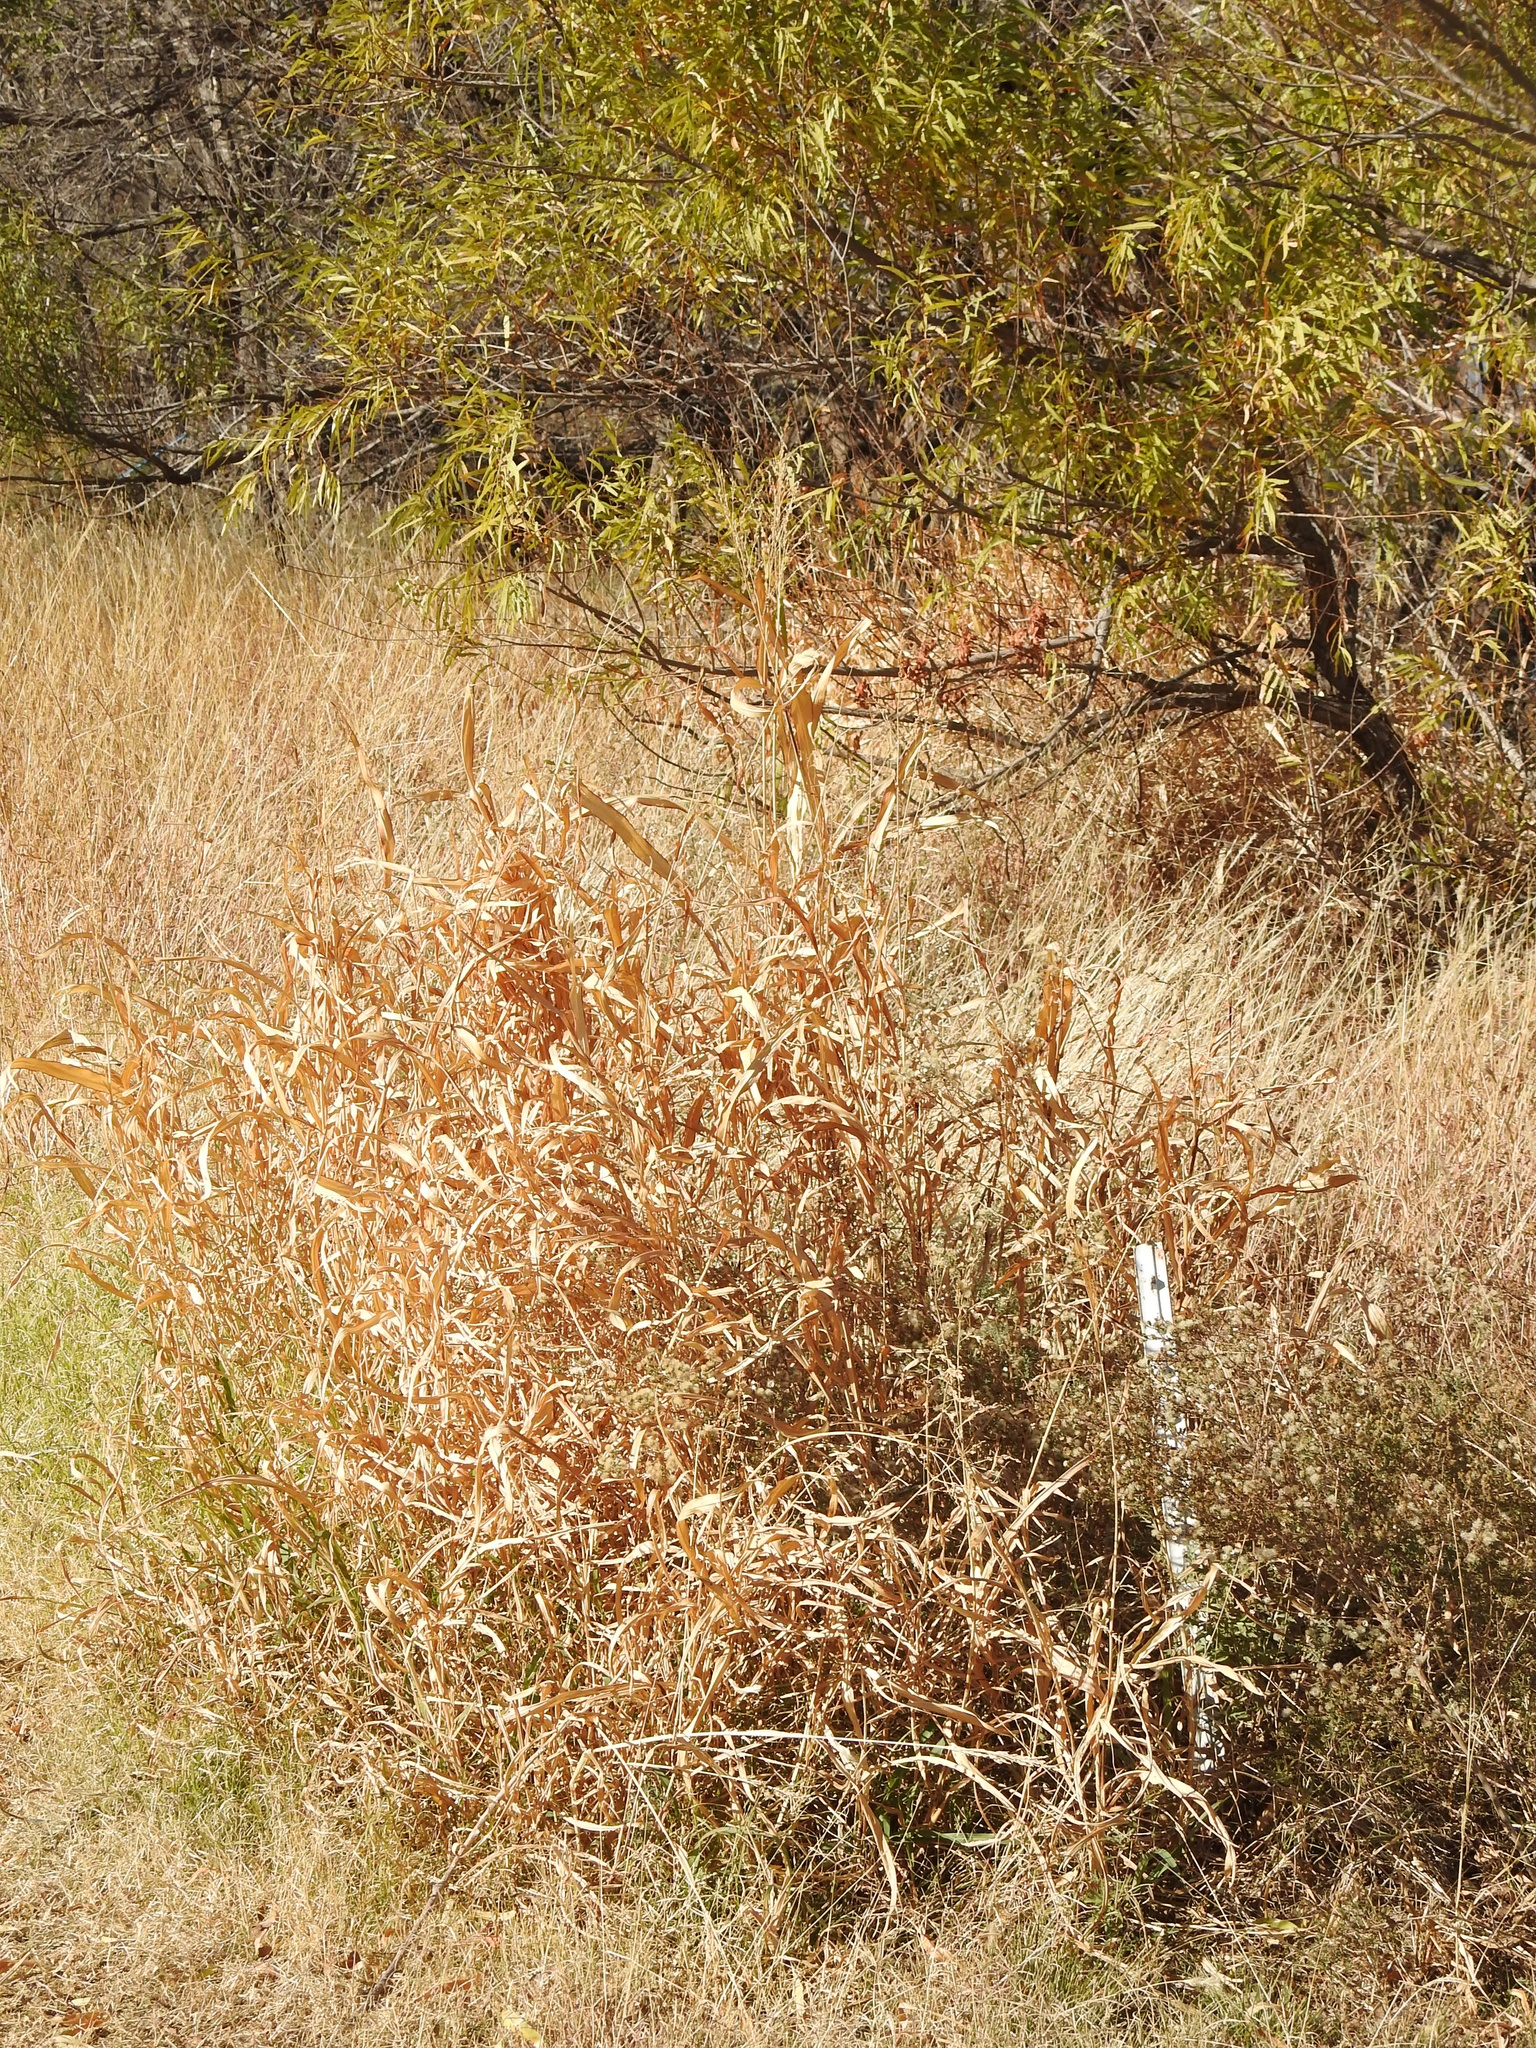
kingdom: Plantae
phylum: Tracheophyta
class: Liliopsida
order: Poales
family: Poaceae
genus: Sorghum
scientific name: Sorghum halepense
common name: Johnson-grass
